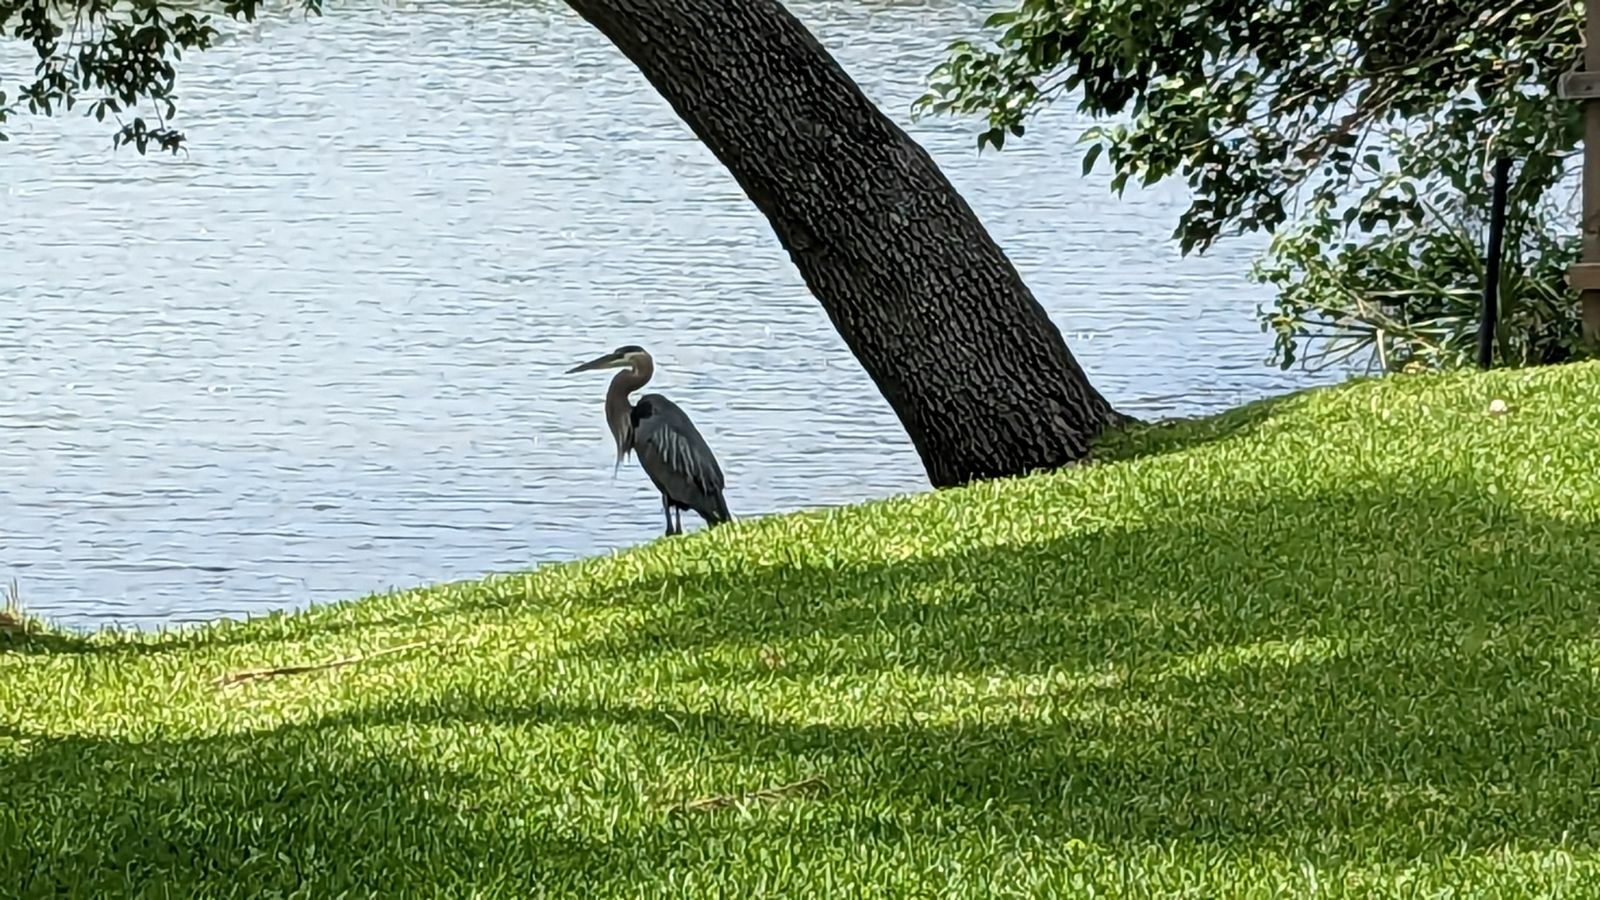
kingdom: Animalia
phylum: Chordata
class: Aves
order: Pelecaniformes
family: Ardeidae
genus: Ardea
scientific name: Ardea herodias
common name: Great blue heron
